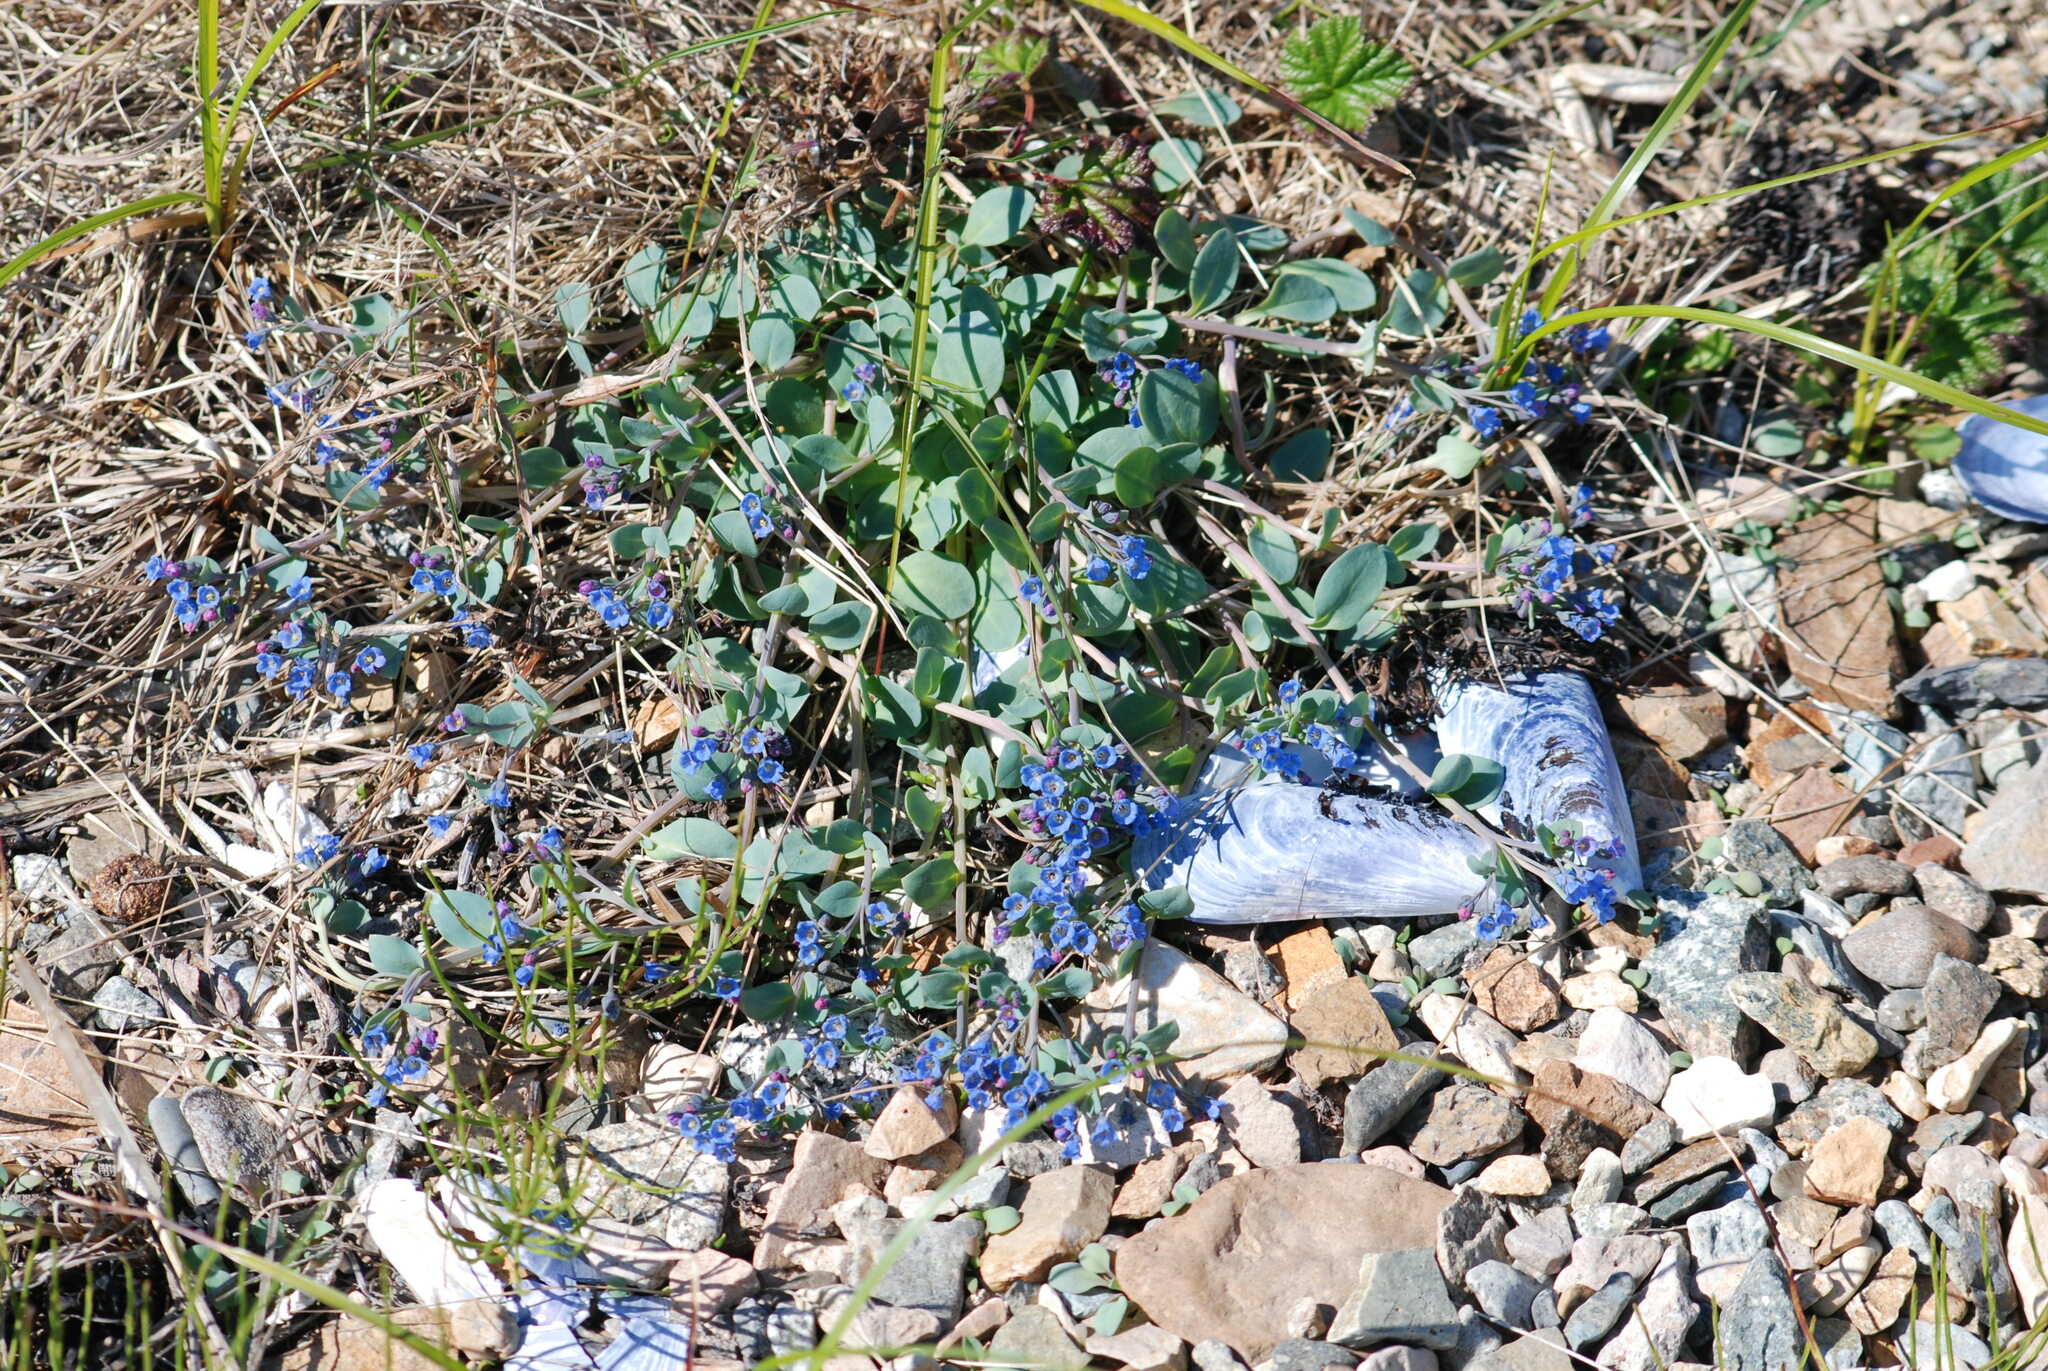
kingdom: Plantae
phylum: Tracheophyta
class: Magnoliopsida
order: Boraginales
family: Boraginaceae
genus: Mertensia
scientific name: Mertensia maritima
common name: Oysterplant
